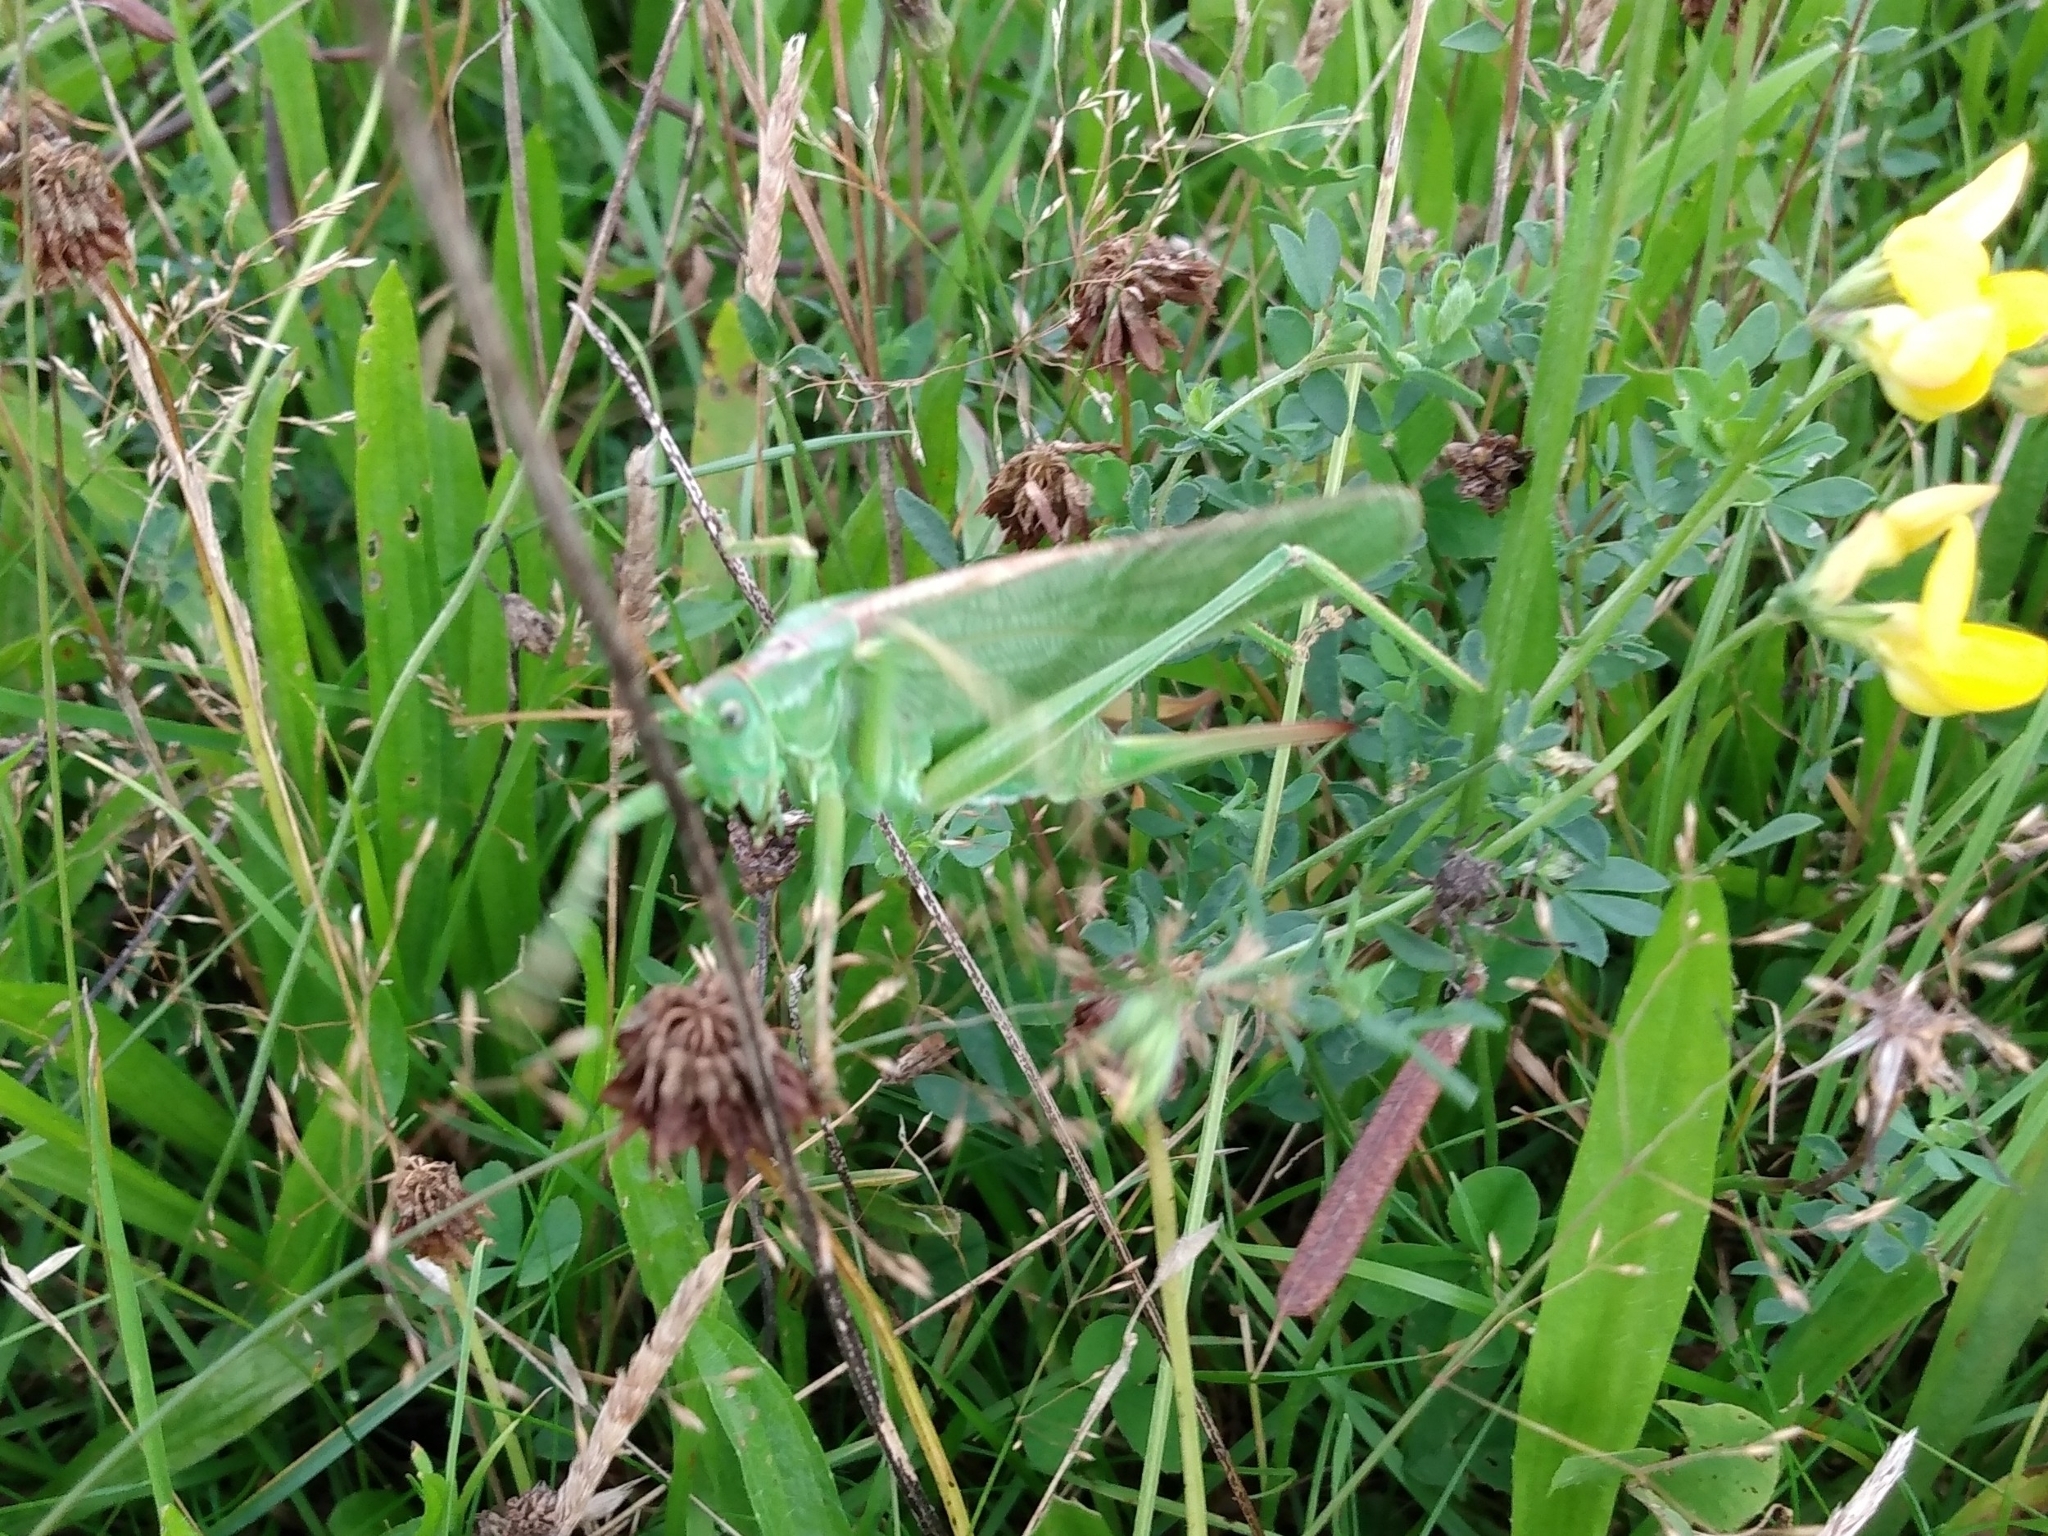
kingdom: Animalia
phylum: Arthropoda
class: Insecta
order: Orthoptera
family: Tettigoniidae
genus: Tettigonia
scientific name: Tettigonia viridissima
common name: Great green bush-cricket
